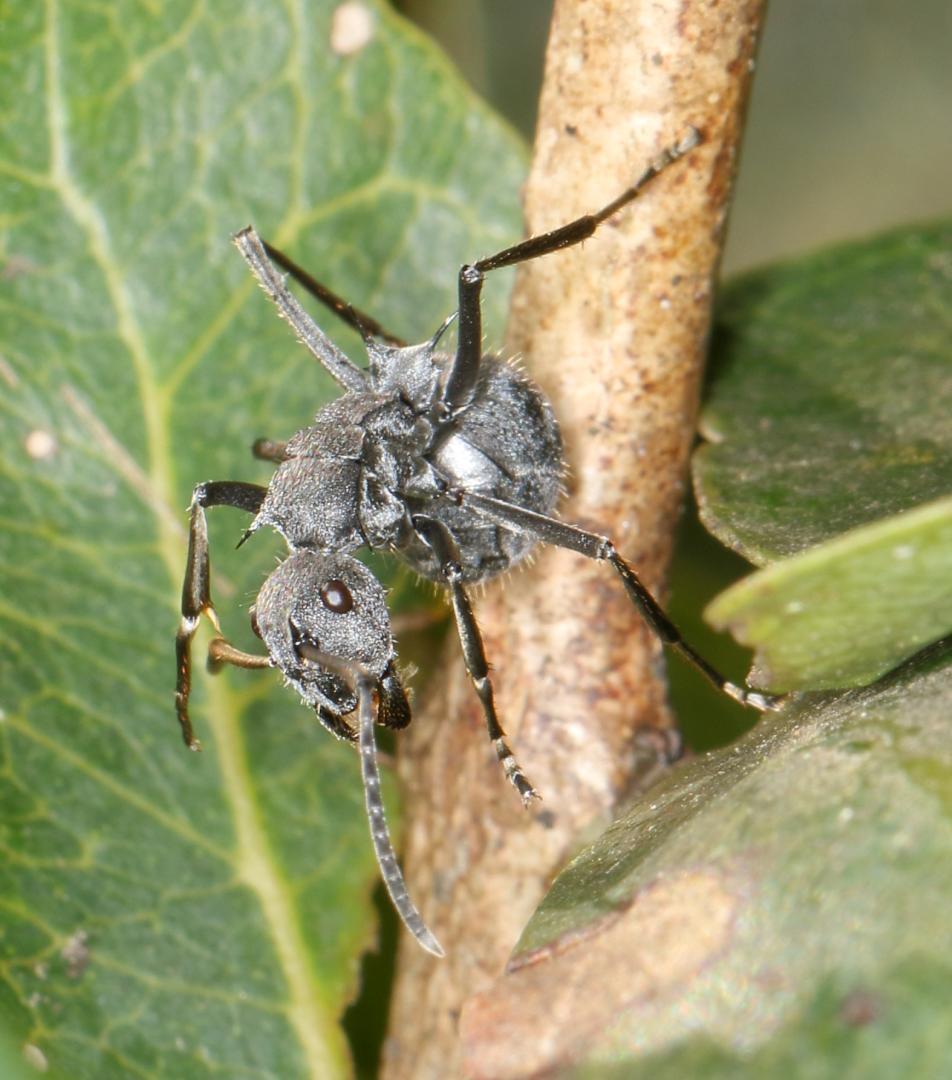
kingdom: Animalia
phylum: Arthropoda
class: Insecta
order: Hymenoptera
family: Formicidae
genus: Polyrhachis
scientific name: Polyrhachis schistacea
